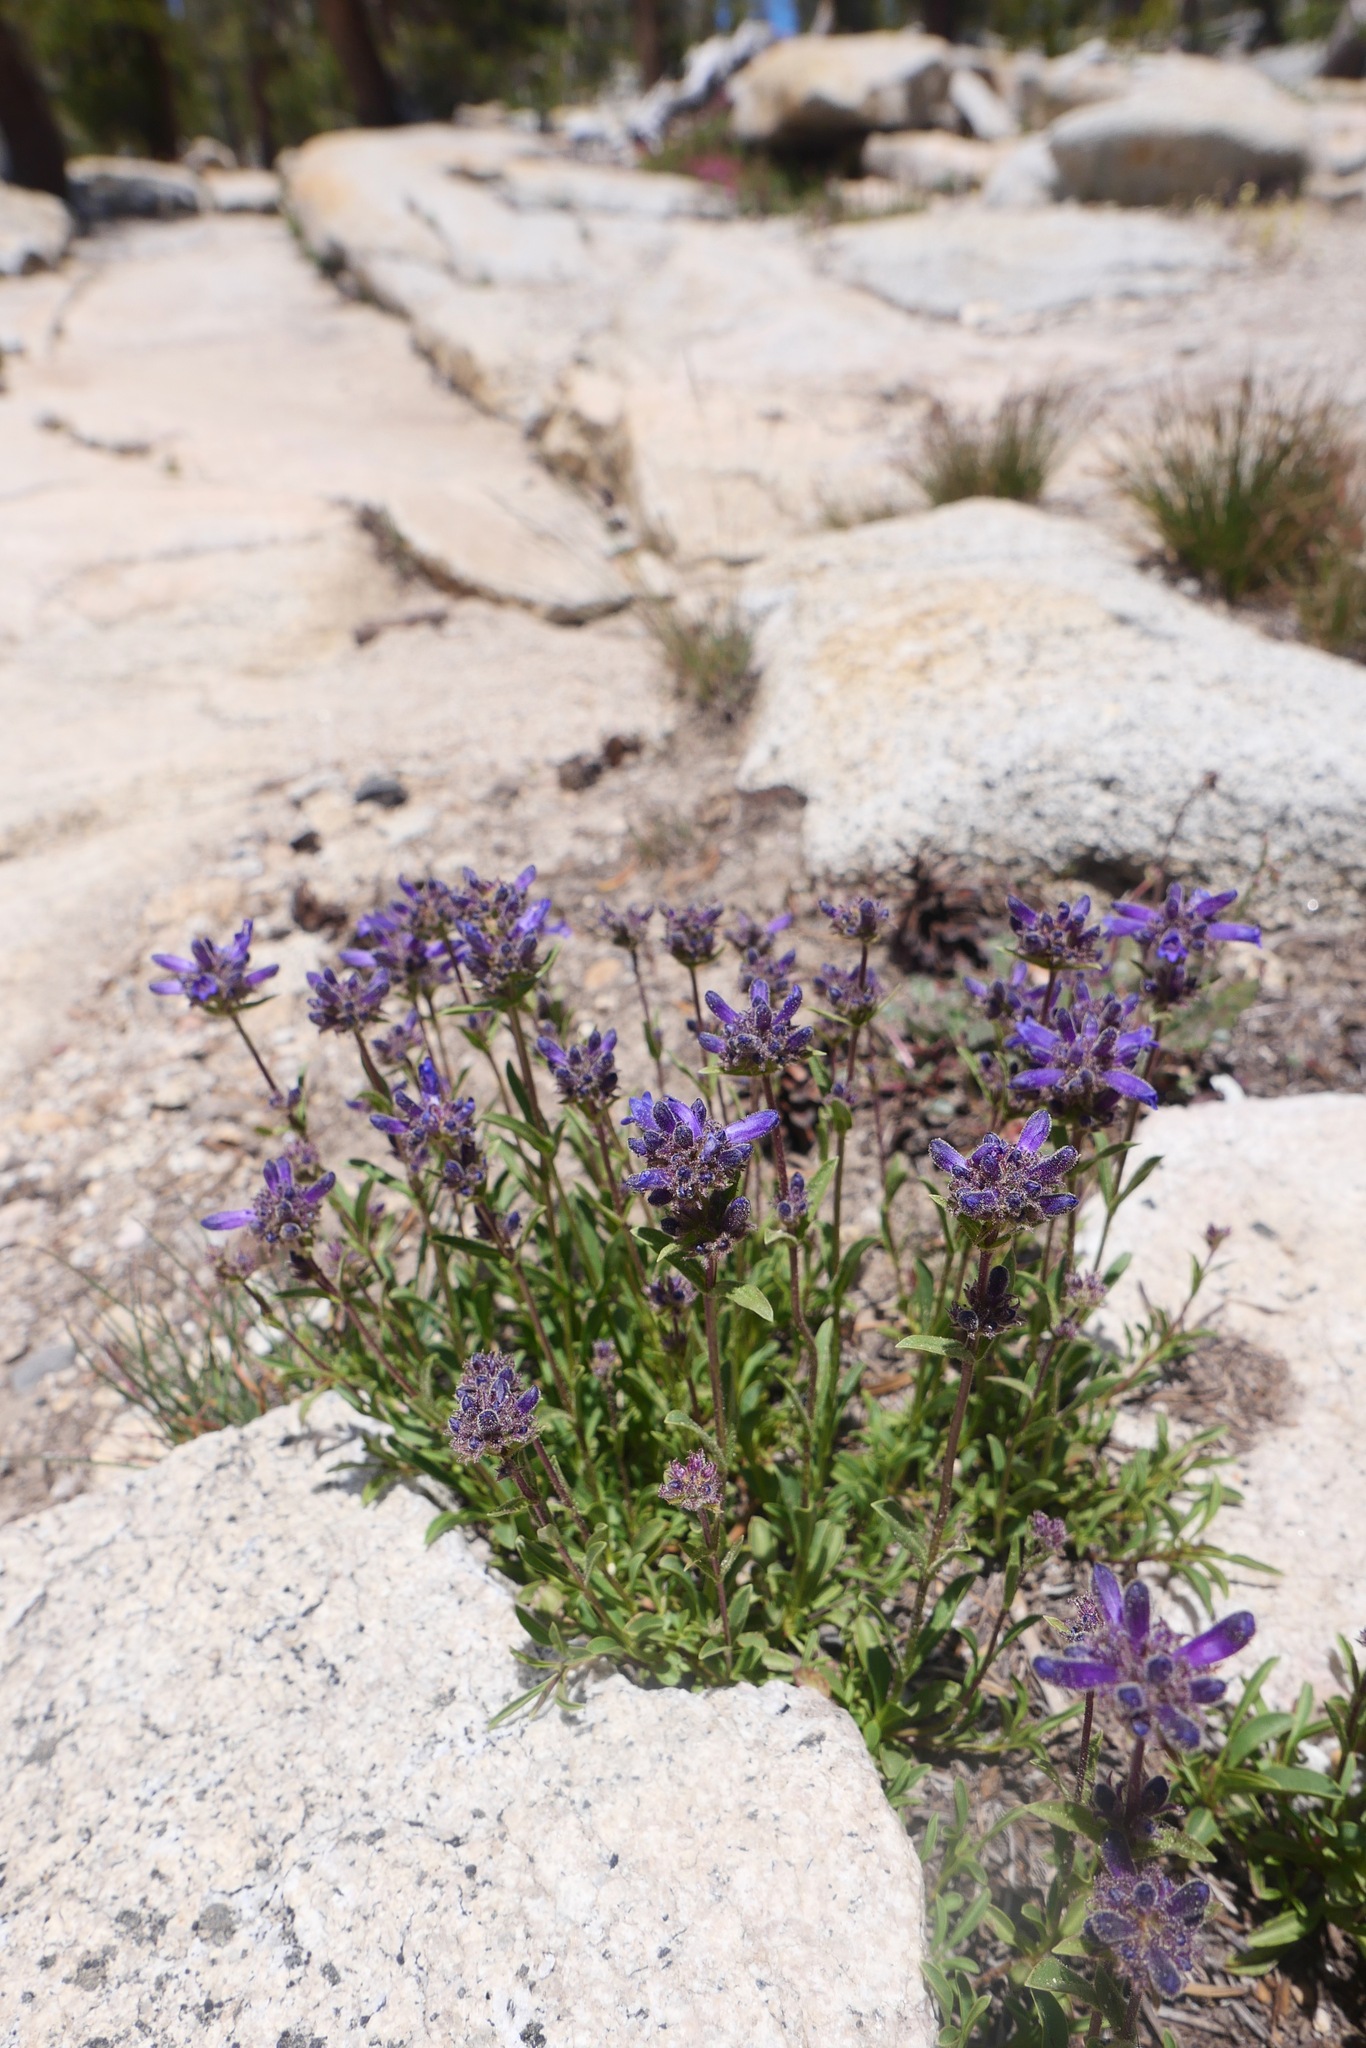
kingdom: Plantae
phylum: Tracheophyta
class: Magnoliopsida
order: Lamiales
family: Plantaginaceae
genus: Penstemon
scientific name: Penstemon heterodoxus
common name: Sierran penstemon
